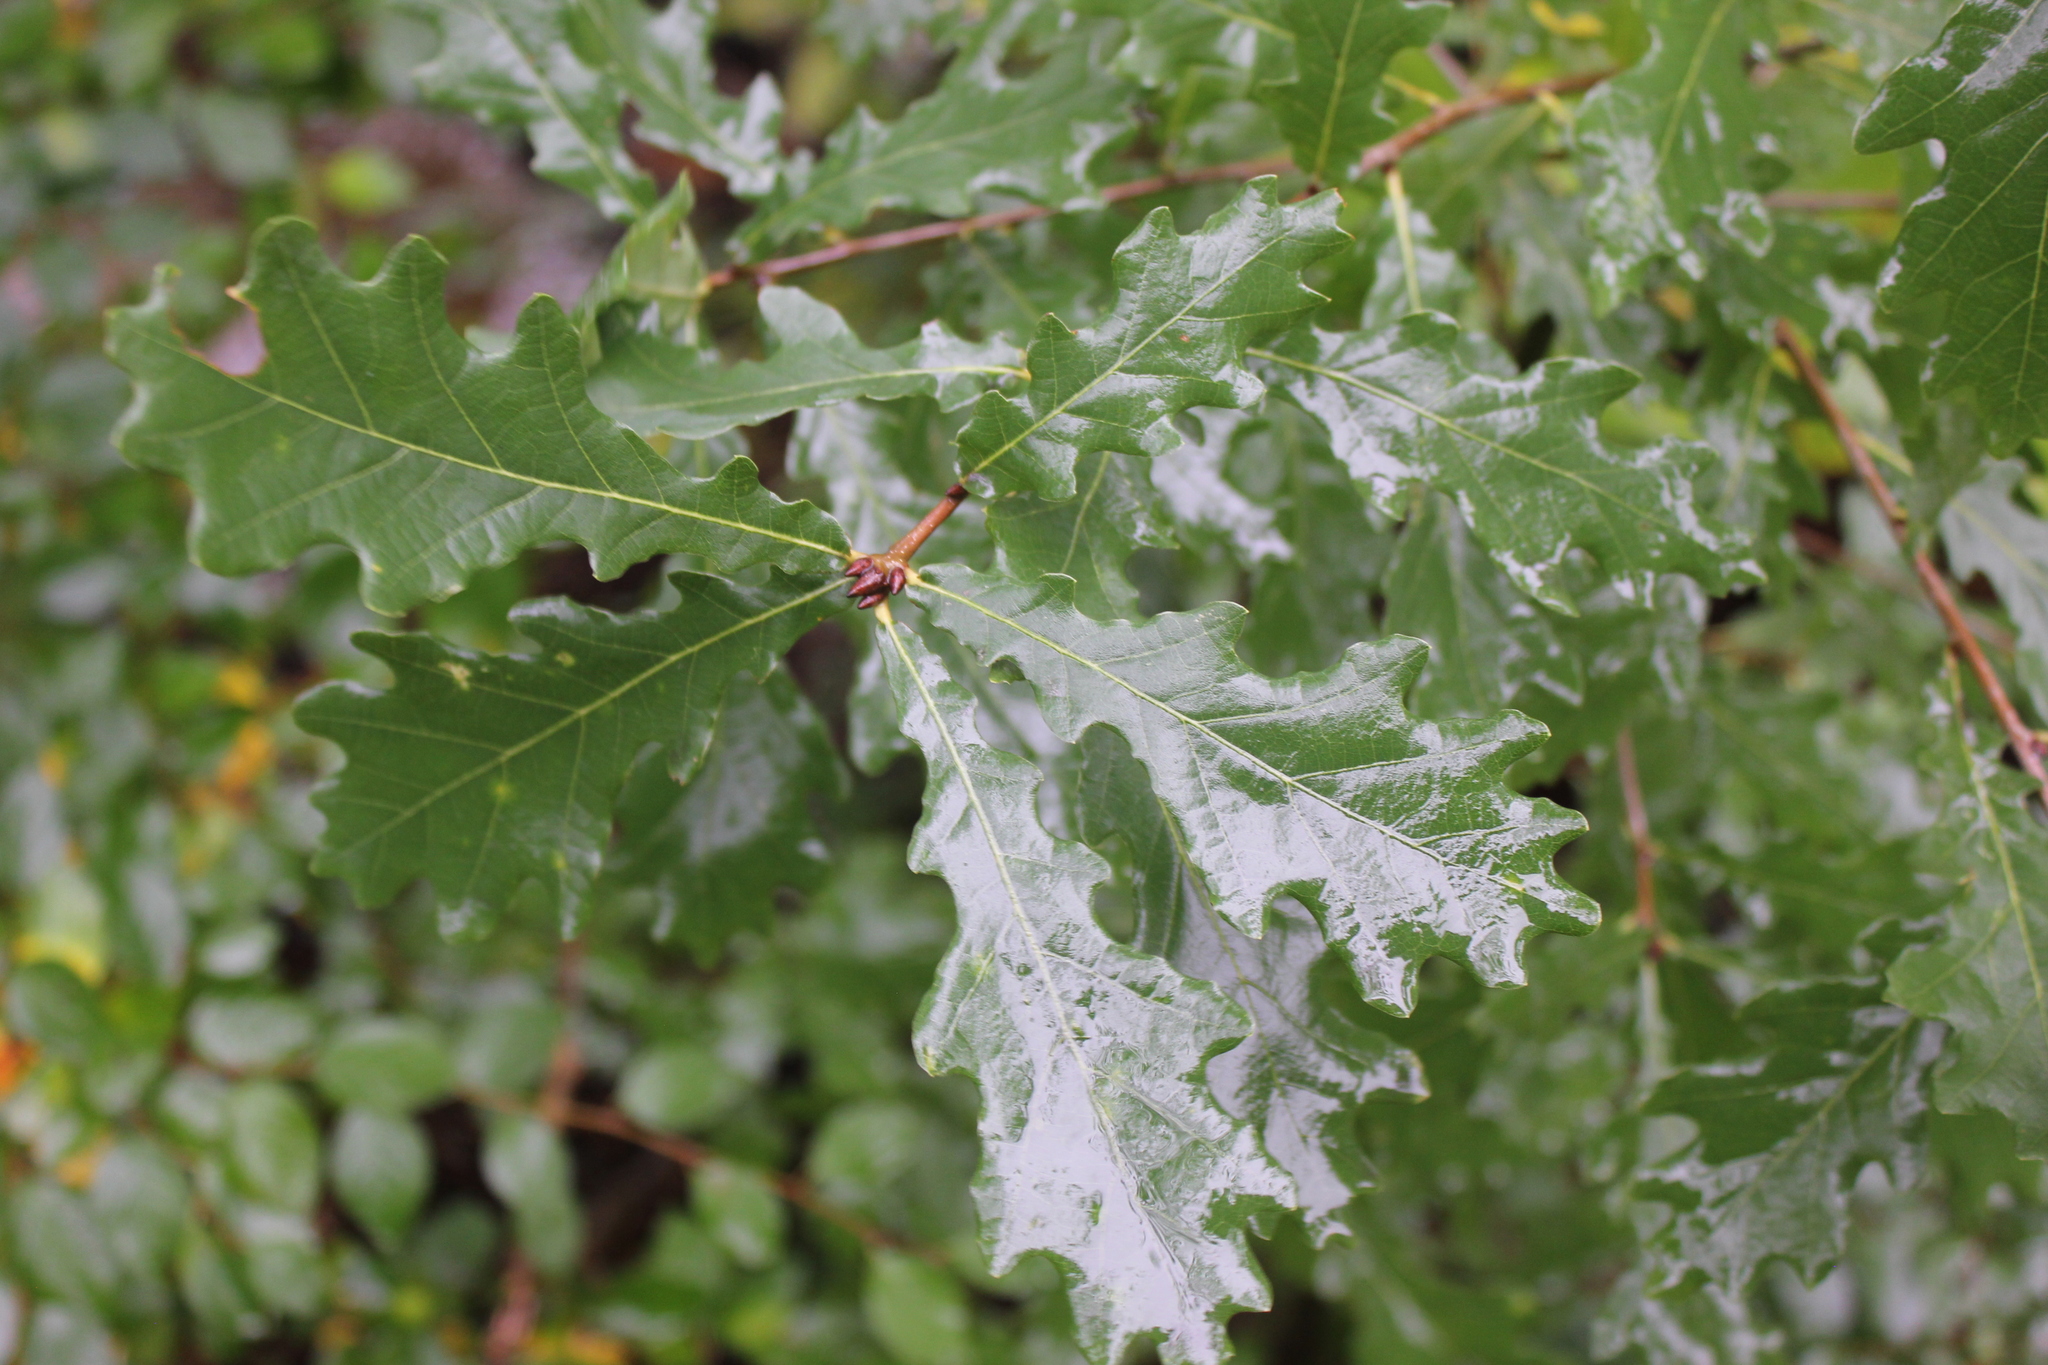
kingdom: Plantae
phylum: Tracheophyta
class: Magnoliopsida
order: Fagales
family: Fagaceae
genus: Quercus
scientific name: Quercus robur
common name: Pedunculate oak
